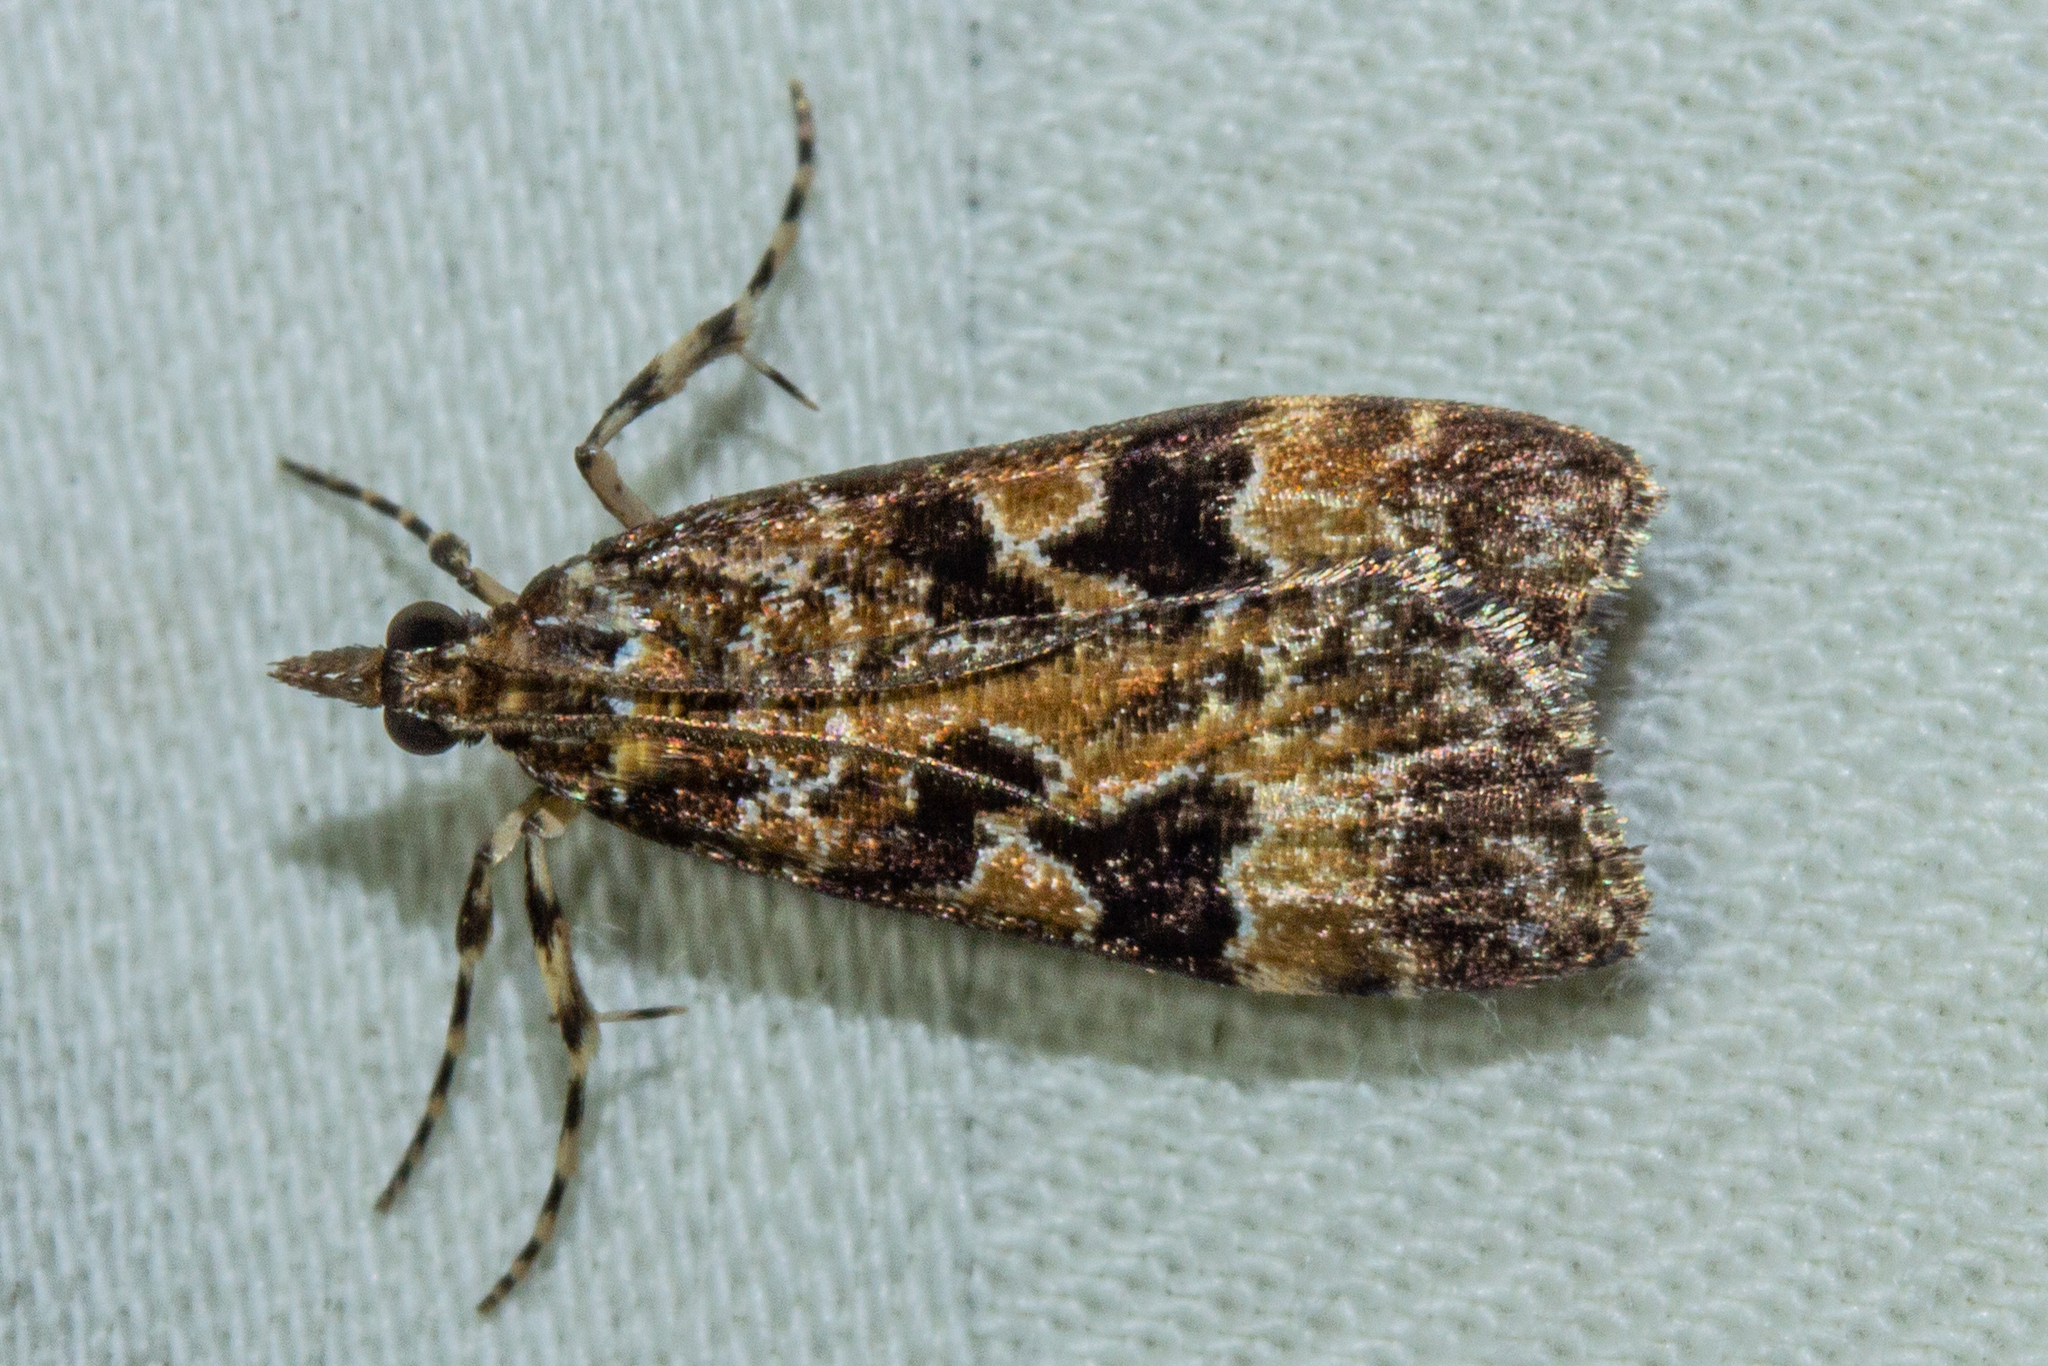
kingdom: Animalia
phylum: Arthropoda
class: Insecta
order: Lepidoptera
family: Crambidae
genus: Scoparia
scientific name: Scoparia ustimacula
